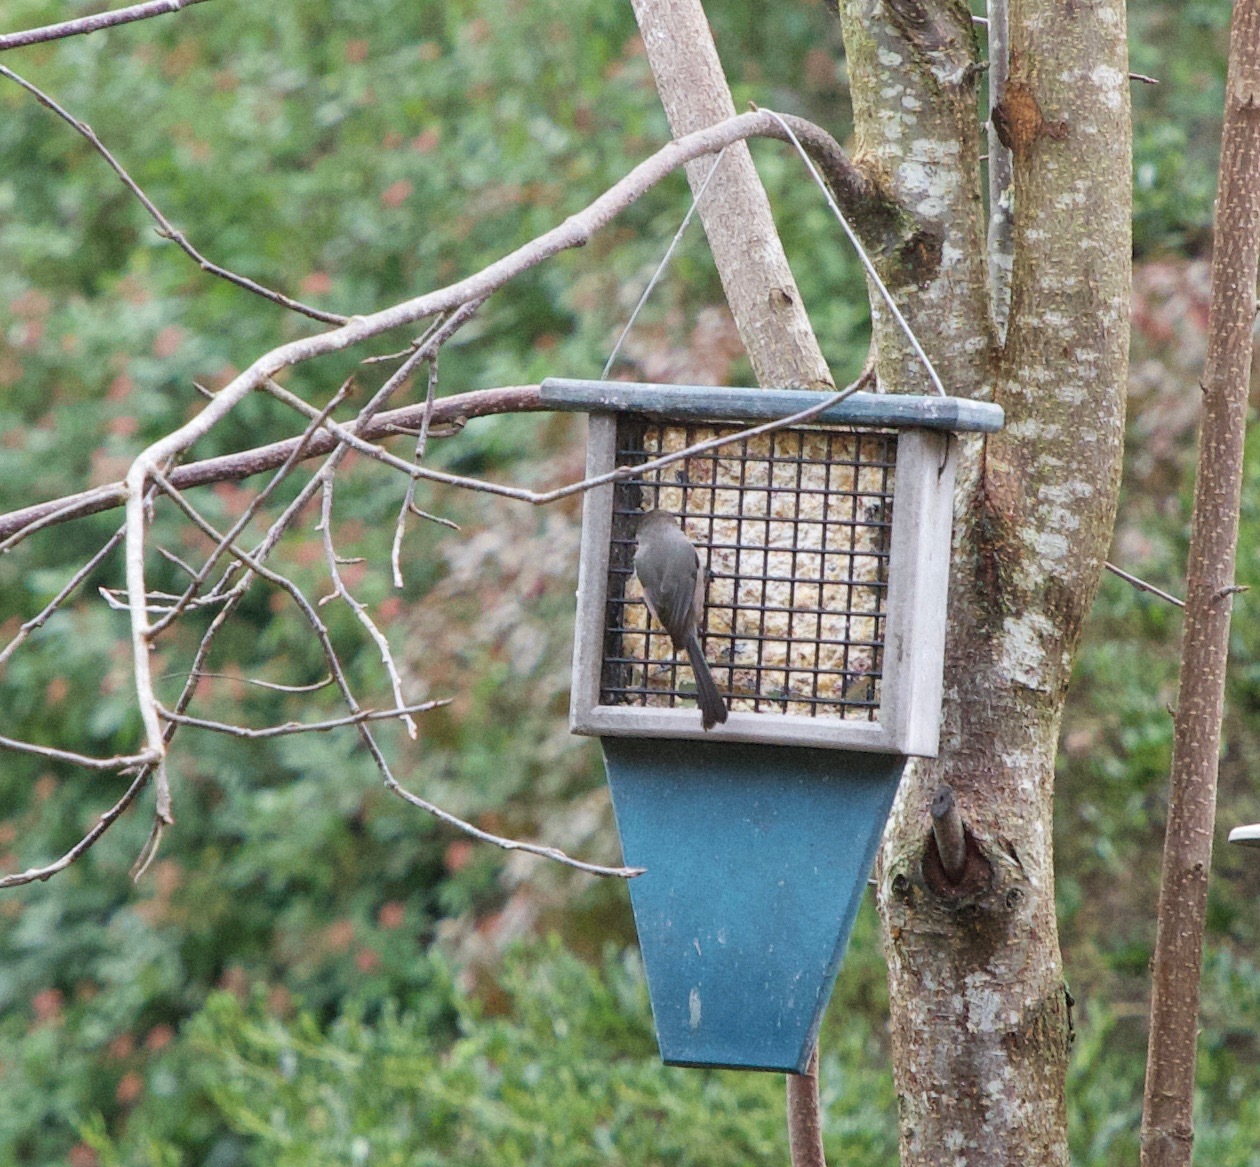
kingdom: Animalia
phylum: Chordata
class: Aves
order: Passeriformes
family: Aegithalidae
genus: Psaltriparus
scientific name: Psaltriparus minimus
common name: American bushtit
